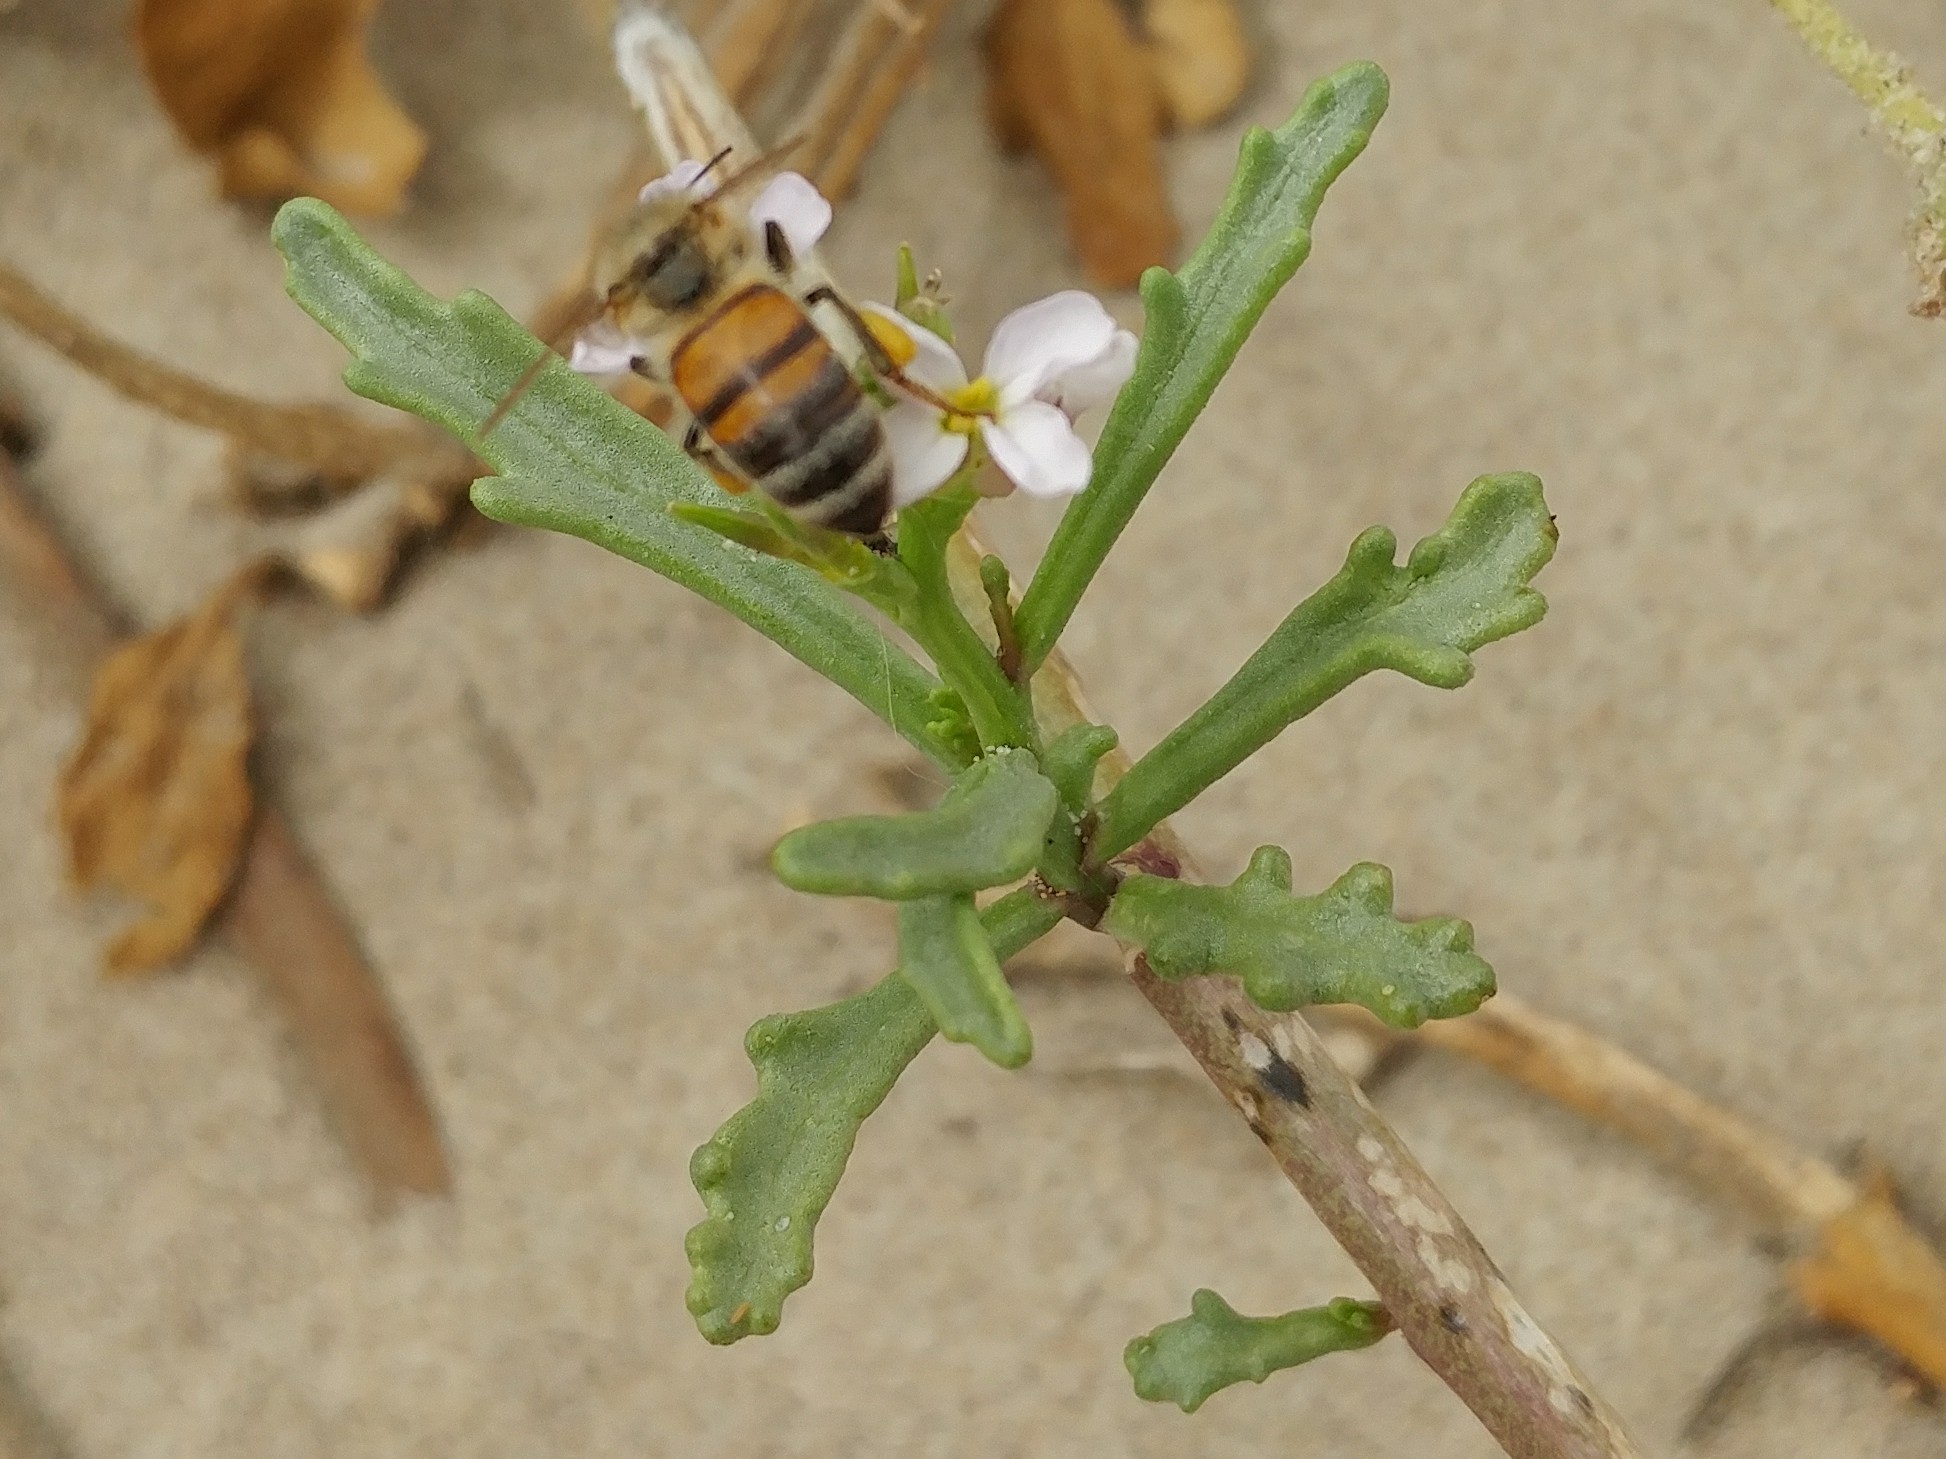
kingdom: Animalia
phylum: Arthropoda
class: Insecta
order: Hymenoptera
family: Apidae
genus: Apis
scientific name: Apis mellifera
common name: Honey bee
